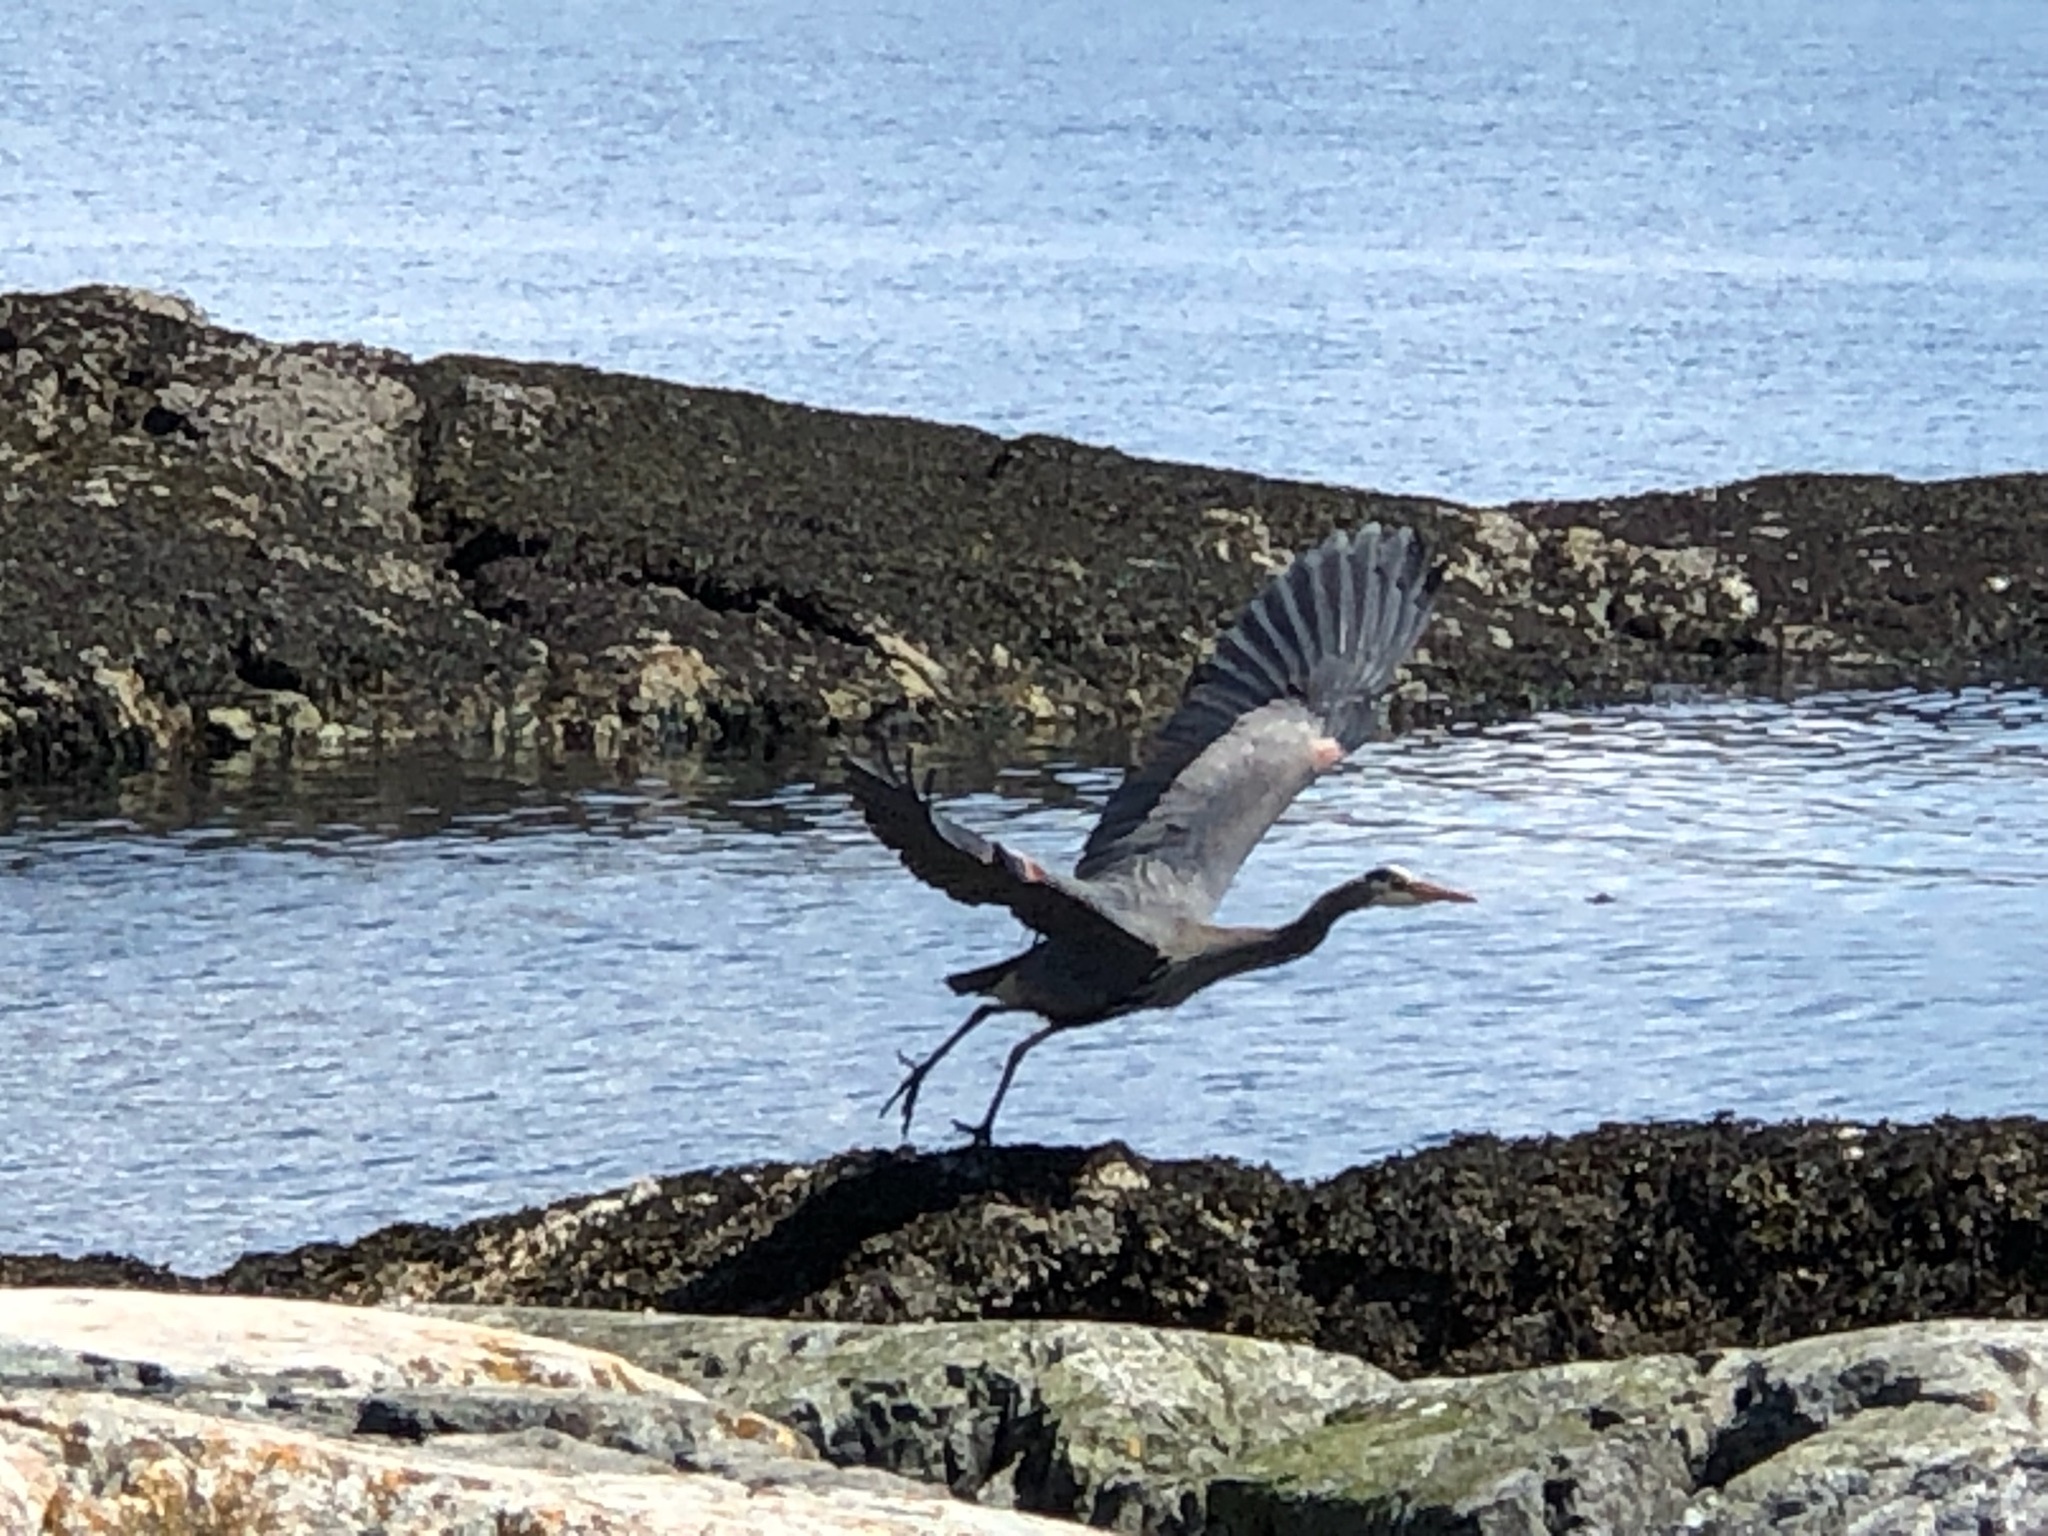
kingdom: Animalia
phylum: Chordata
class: Aves
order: Pelecaniformes
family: Ardeidae
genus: Ardea
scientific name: Ardea herodias
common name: Great blue heron
